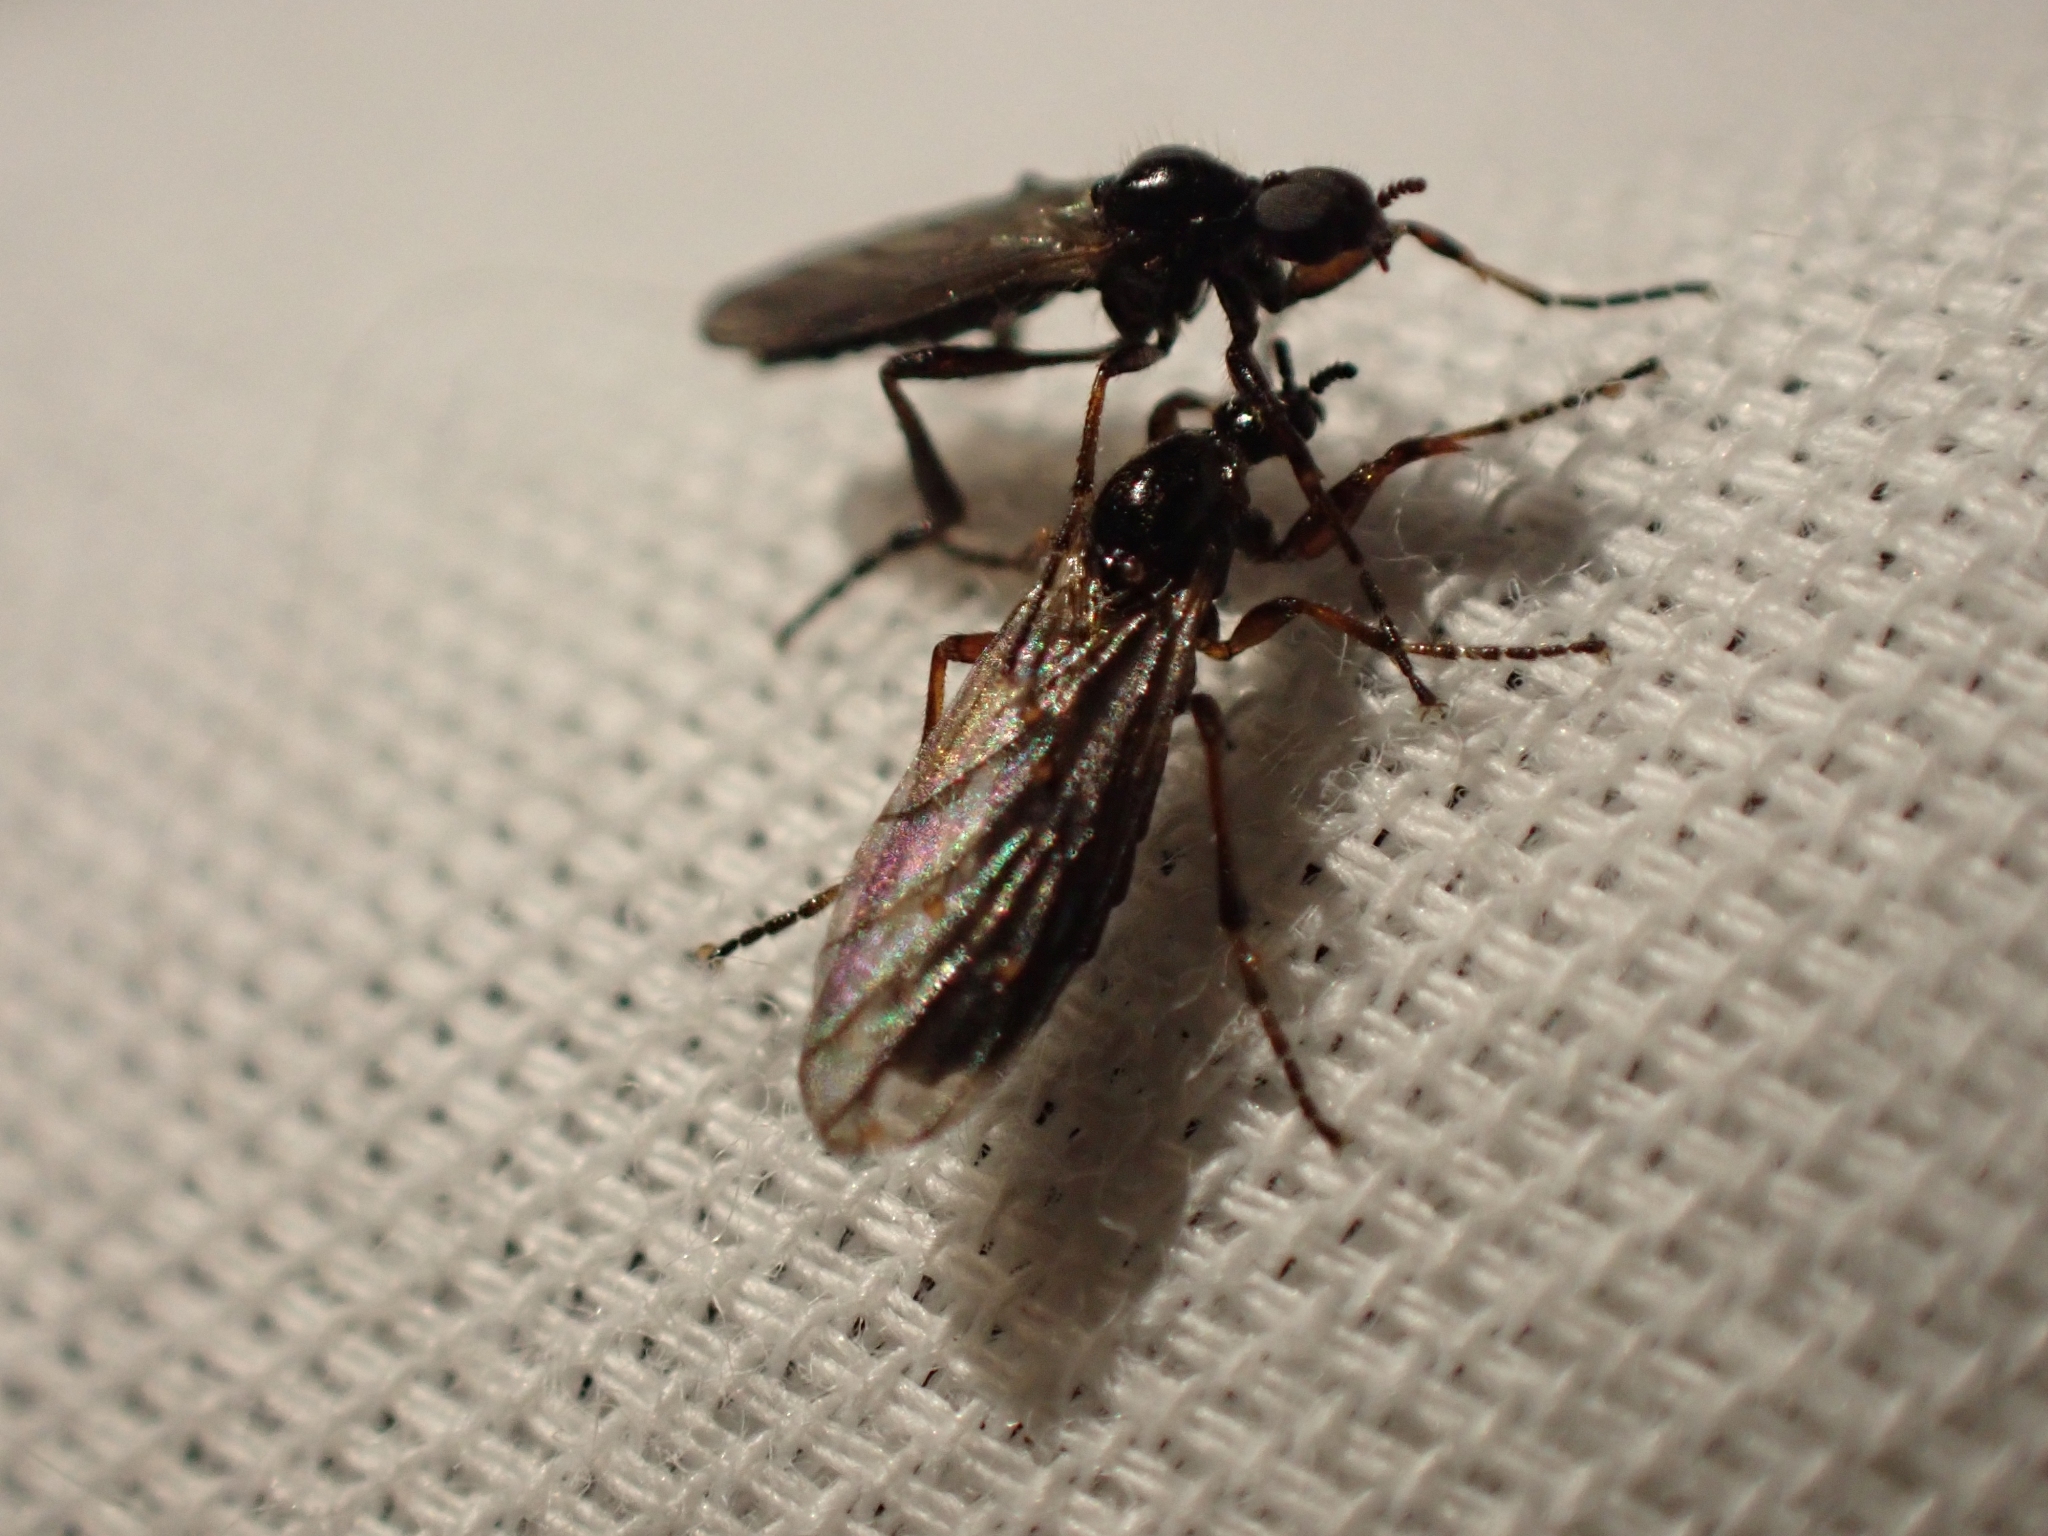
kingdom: Animalia
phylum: Arthropoda
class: Insecta
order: Diptera
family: Bibionidae
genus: Bibio
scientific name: Bibio fluginatus
